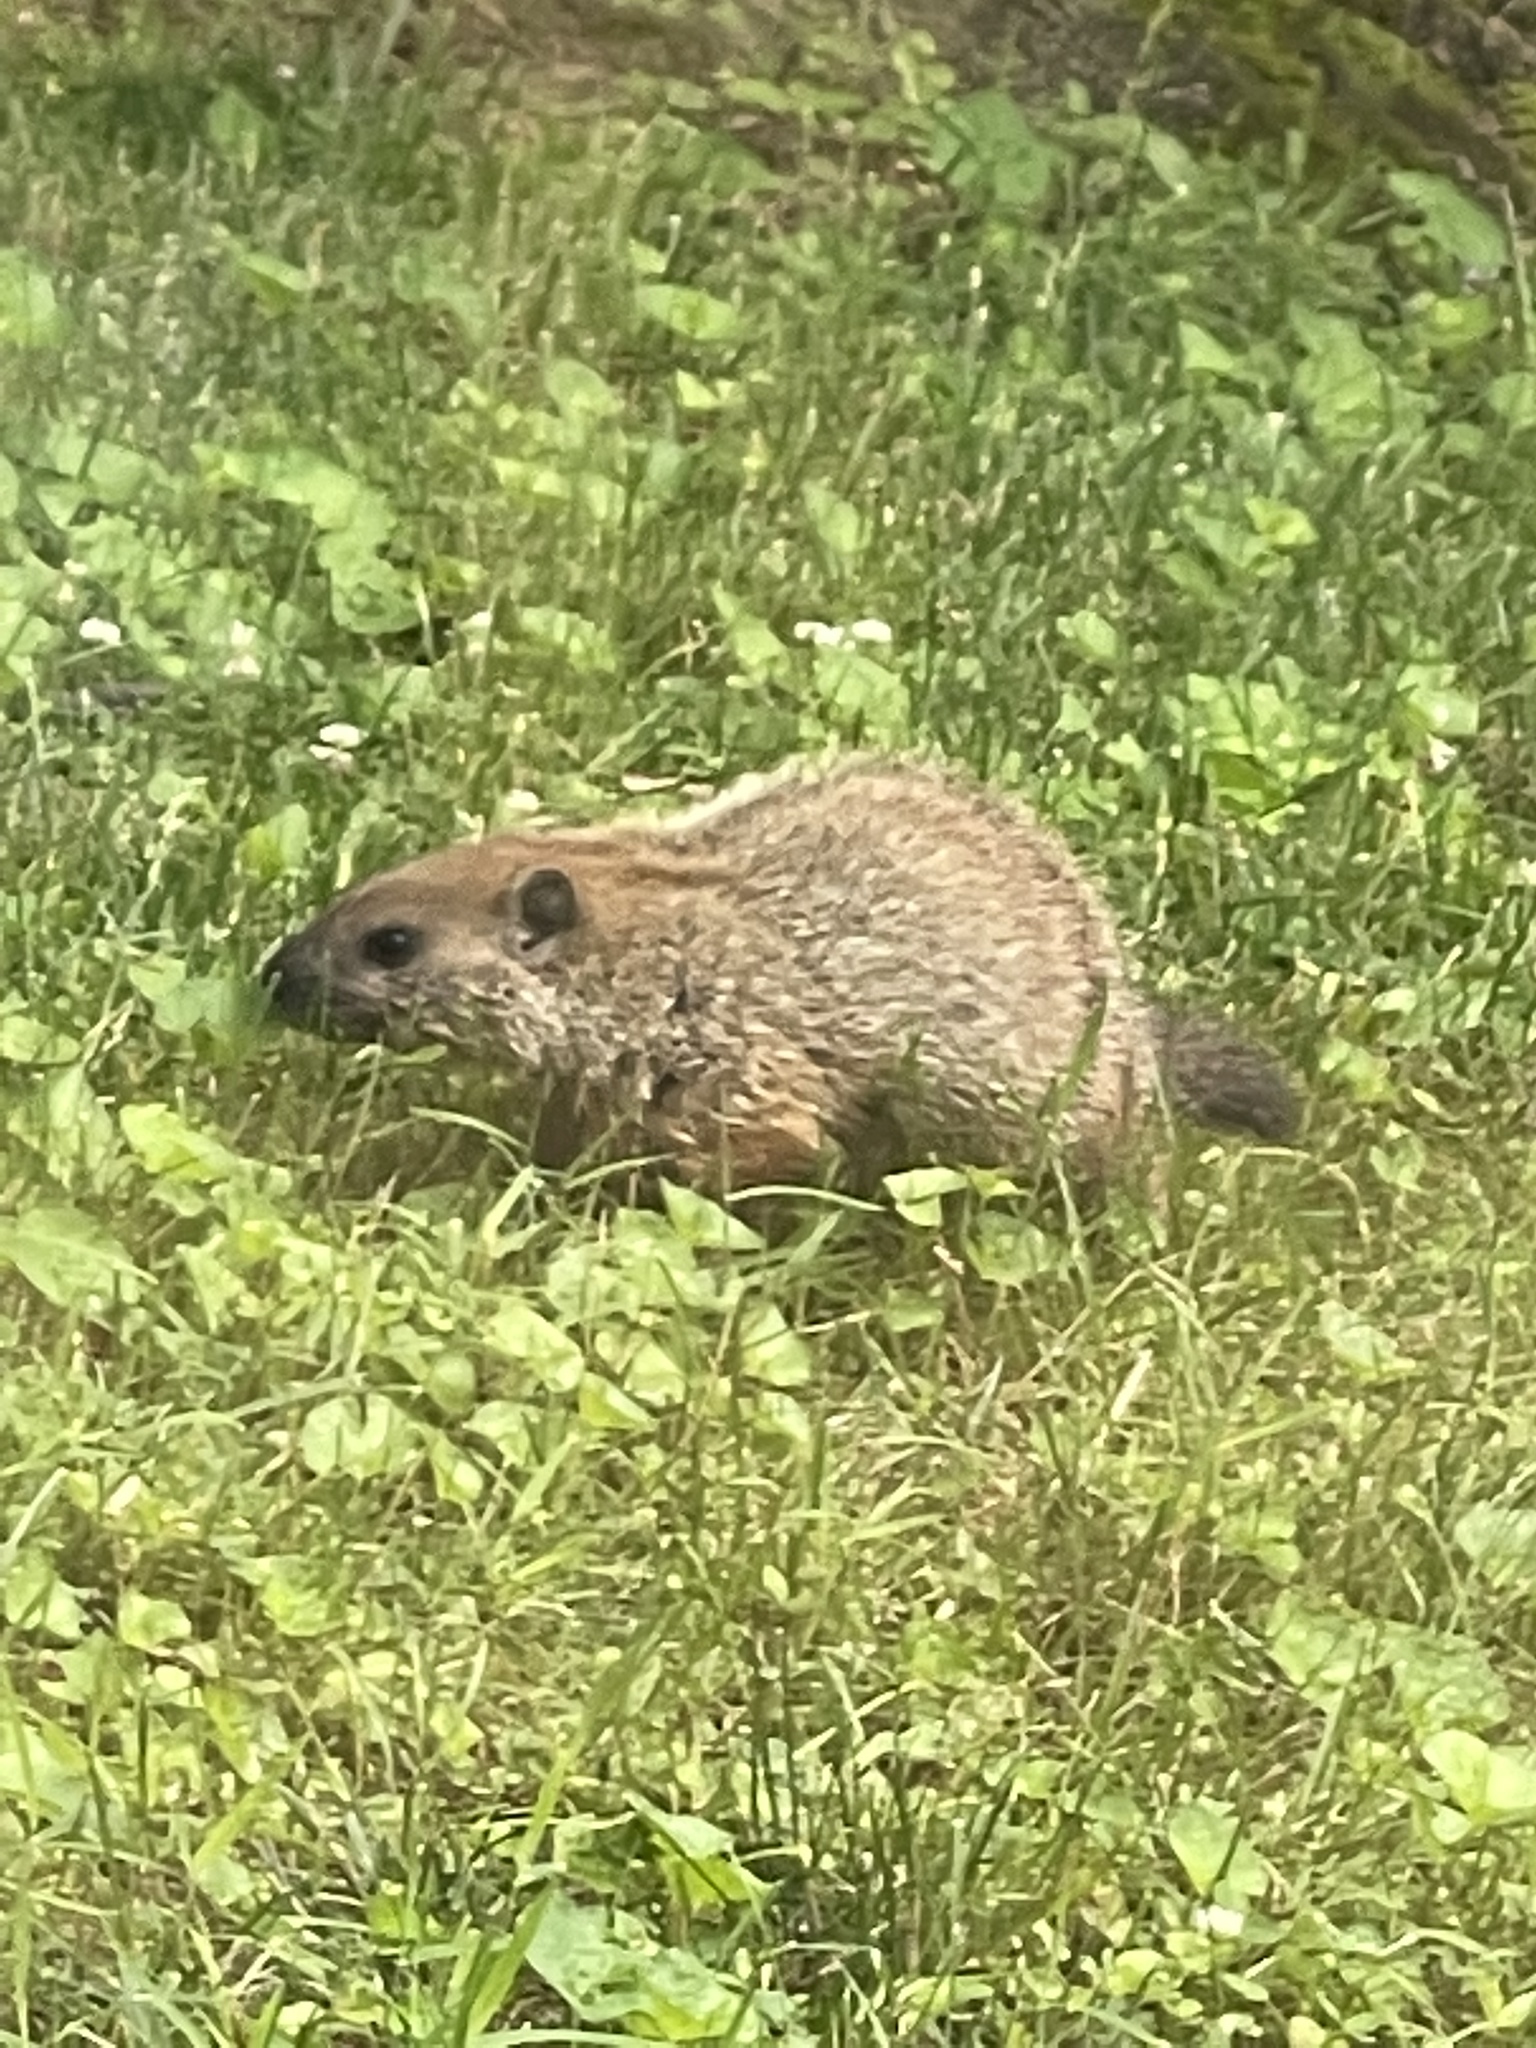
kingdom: Animalia
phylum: Chordata
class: Mammalia
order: Rodentia
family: Sciuridae
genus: Marmota
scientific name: Marmota monax
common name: Groundhog
